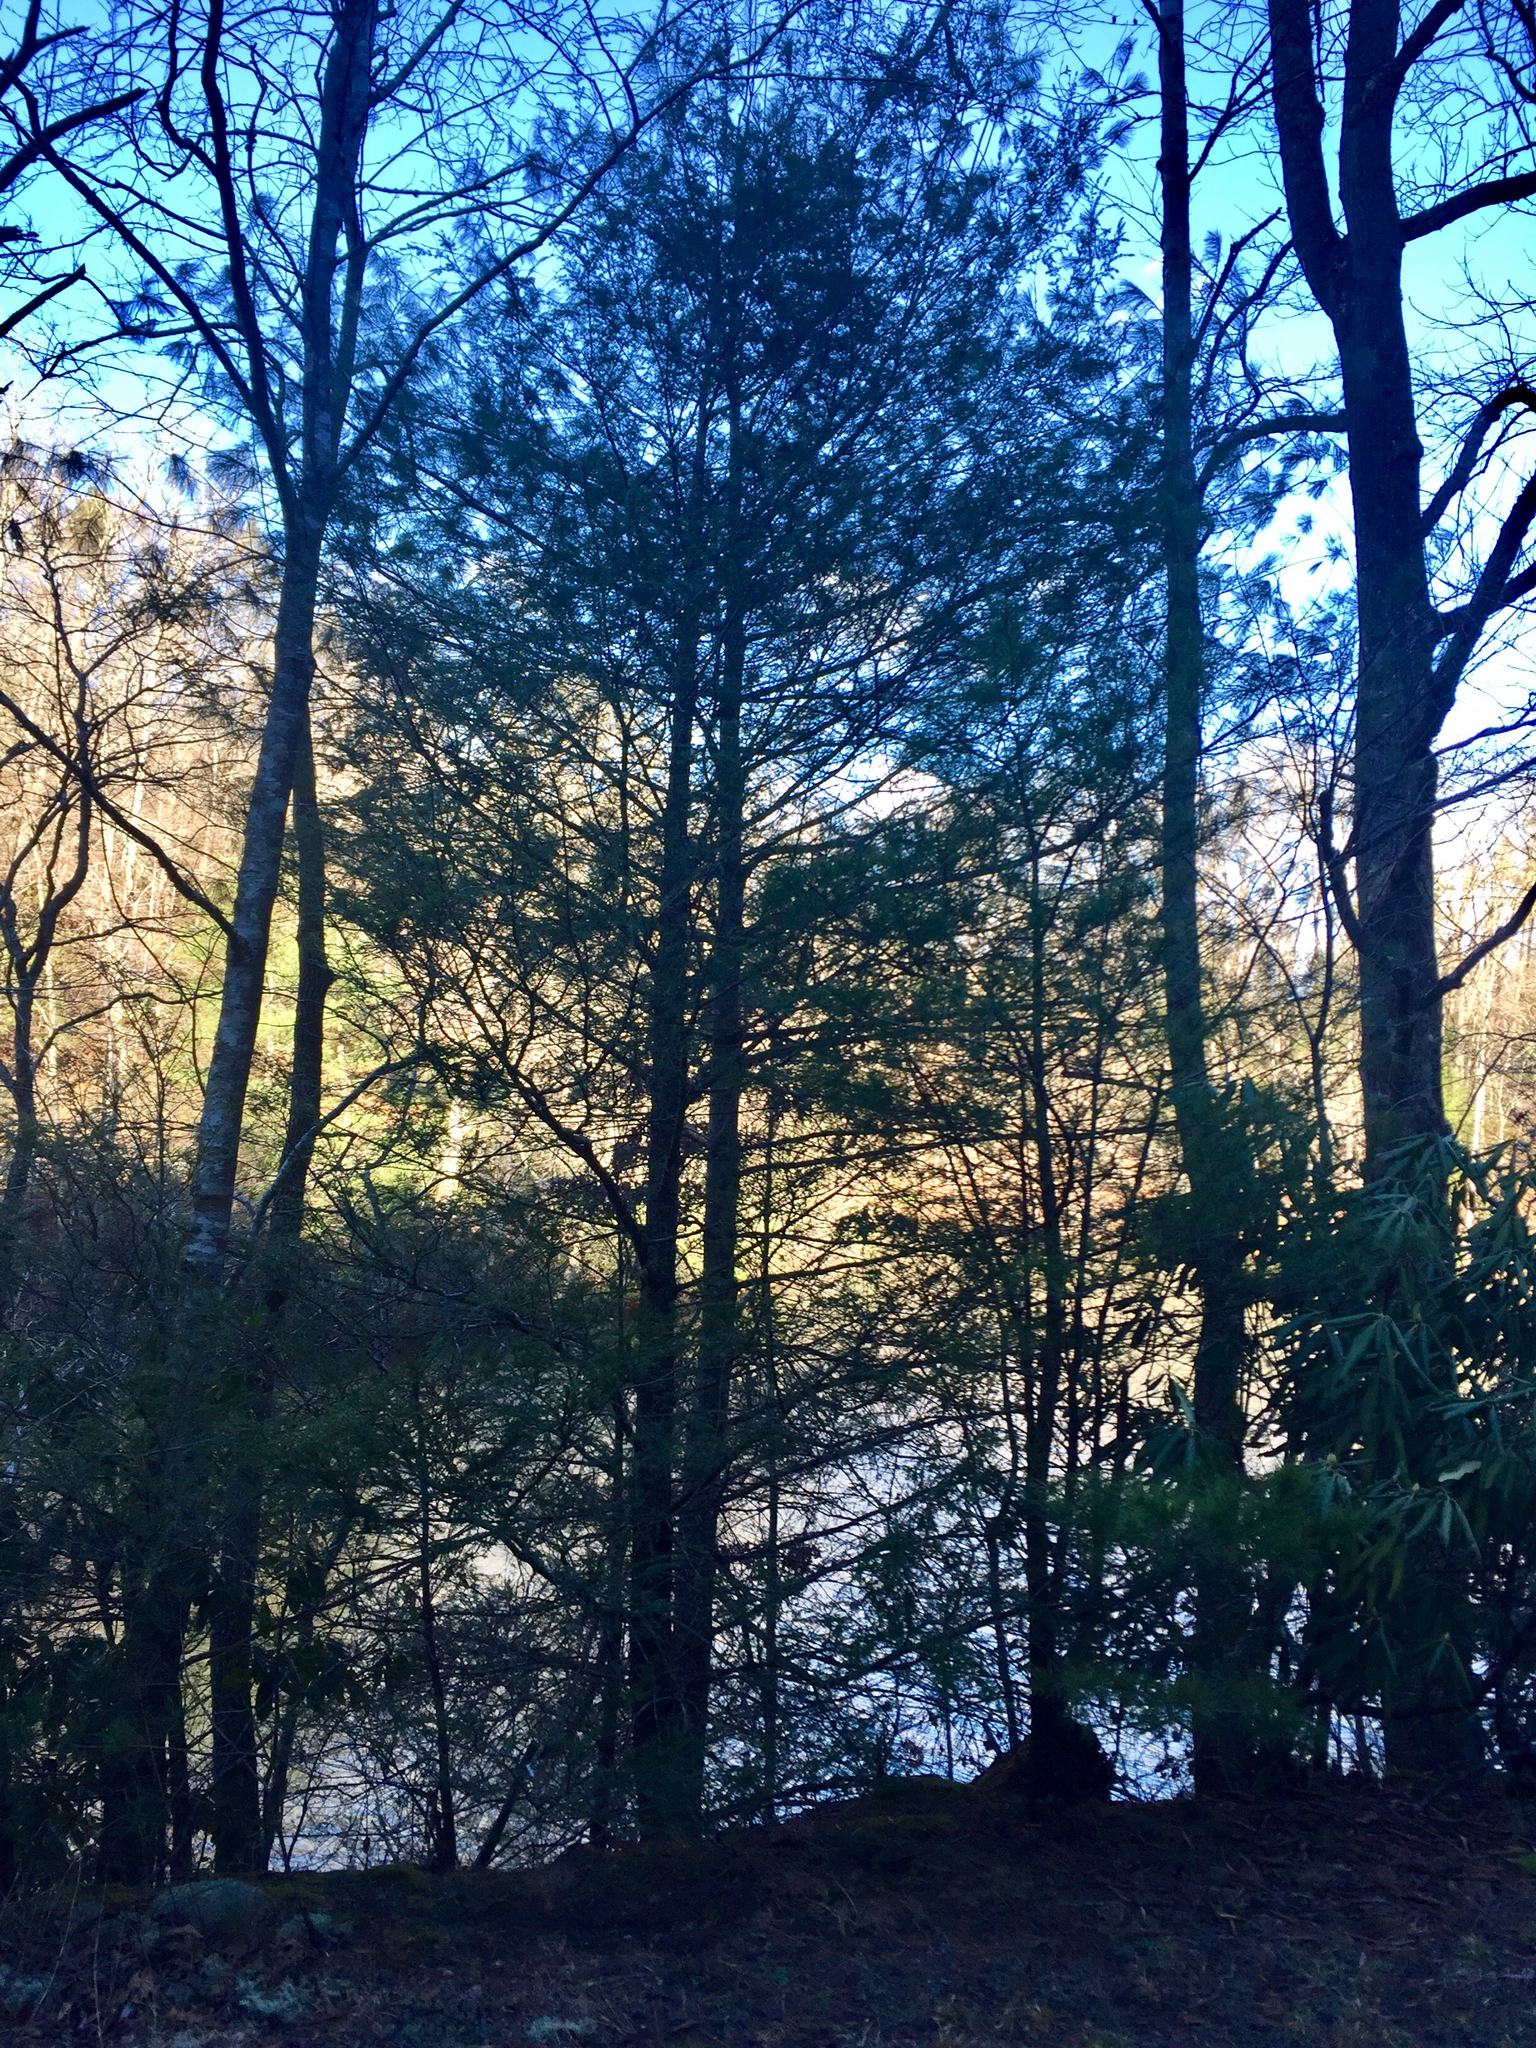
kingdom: Plantae
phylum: Tracheophyta
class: Pinopsida
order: Pinales
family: Pinaceae
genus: Tsuga
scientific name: Tsuga canadensis
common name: Eastern hemlock
